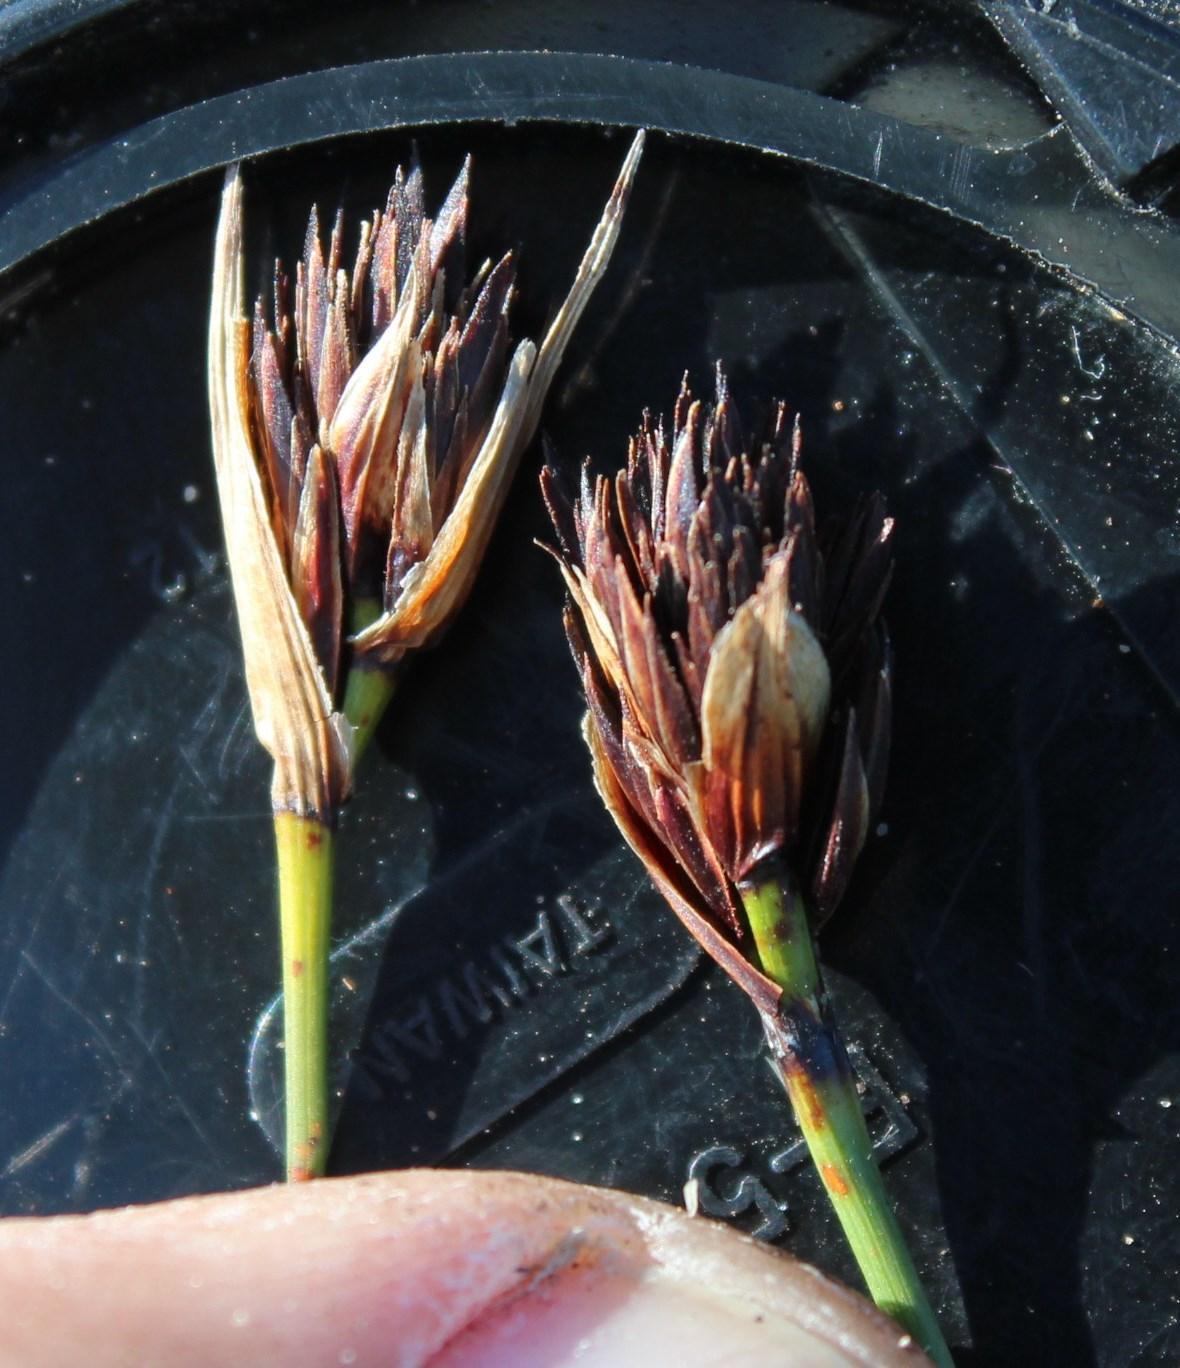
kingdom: Plantae
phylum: Tracheophyta
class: Liliopsida
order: Poales
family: Cyperaceae
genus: Schoenus
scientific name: Schoenus nigricans
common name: Black bog-rush
